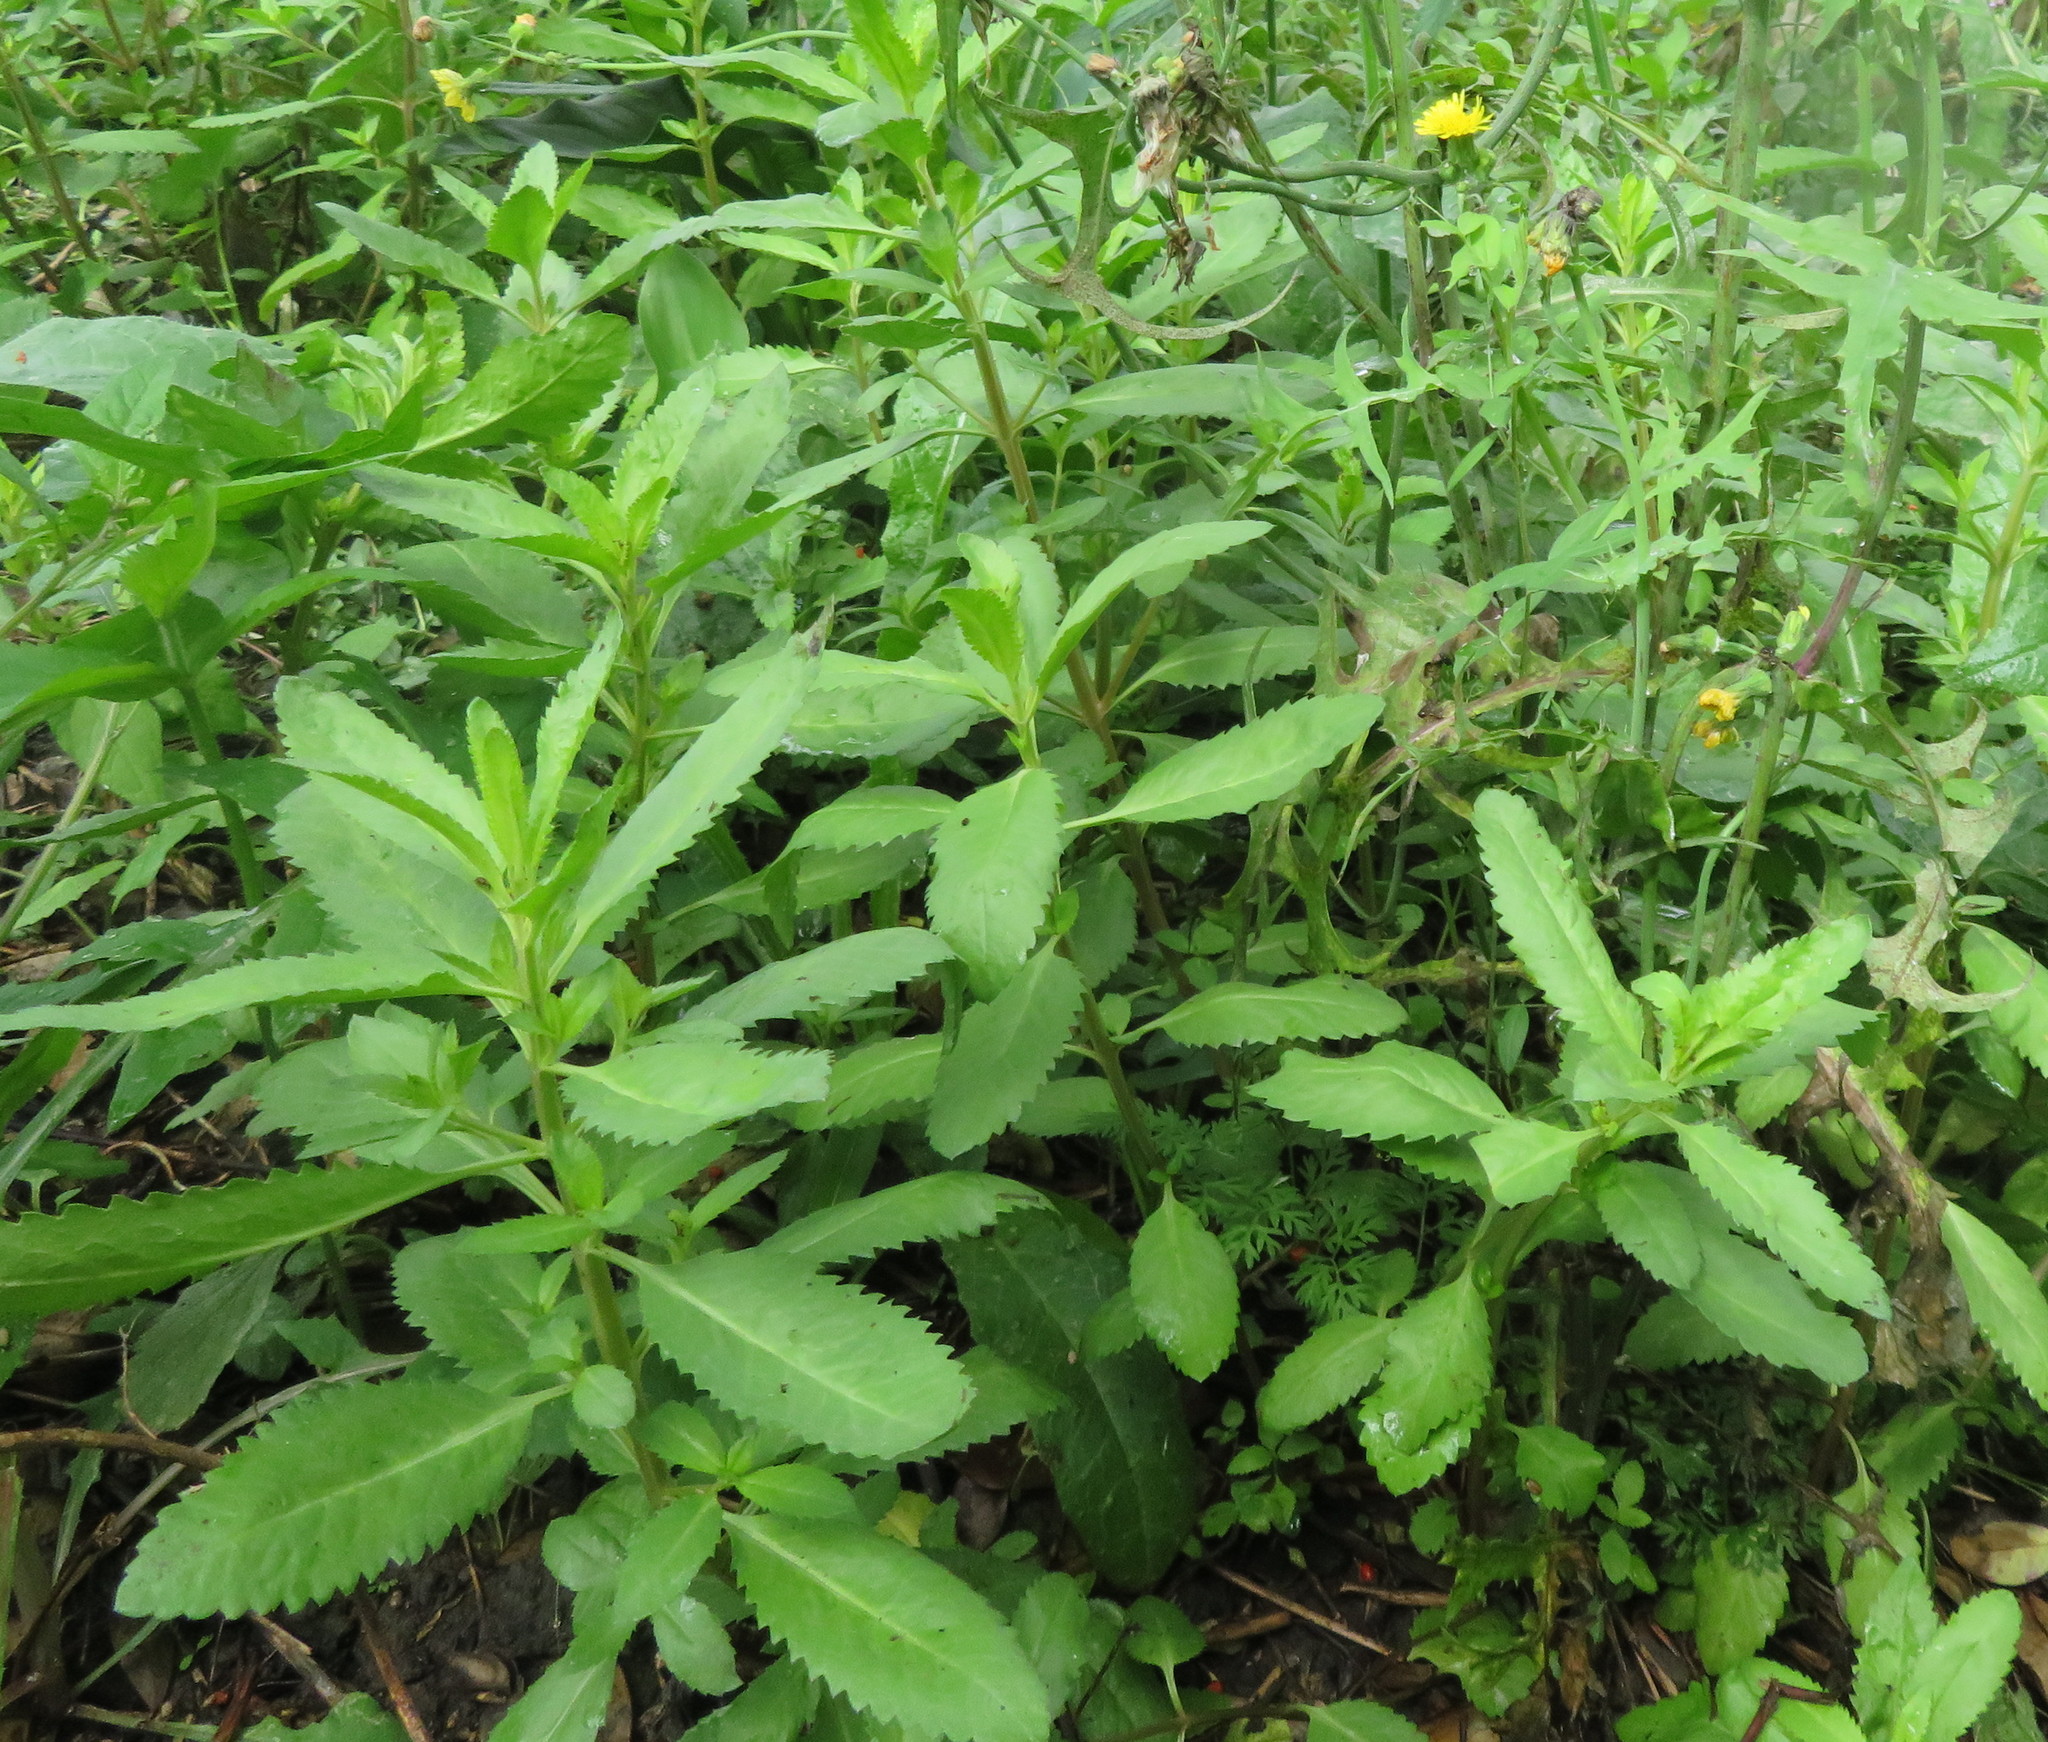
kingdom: Plantae
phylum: Tracheophyta
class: Magnoliopsida
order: Saxifragales
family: Haloragaceae
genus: Haloragis
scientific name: Haloragis erecta
